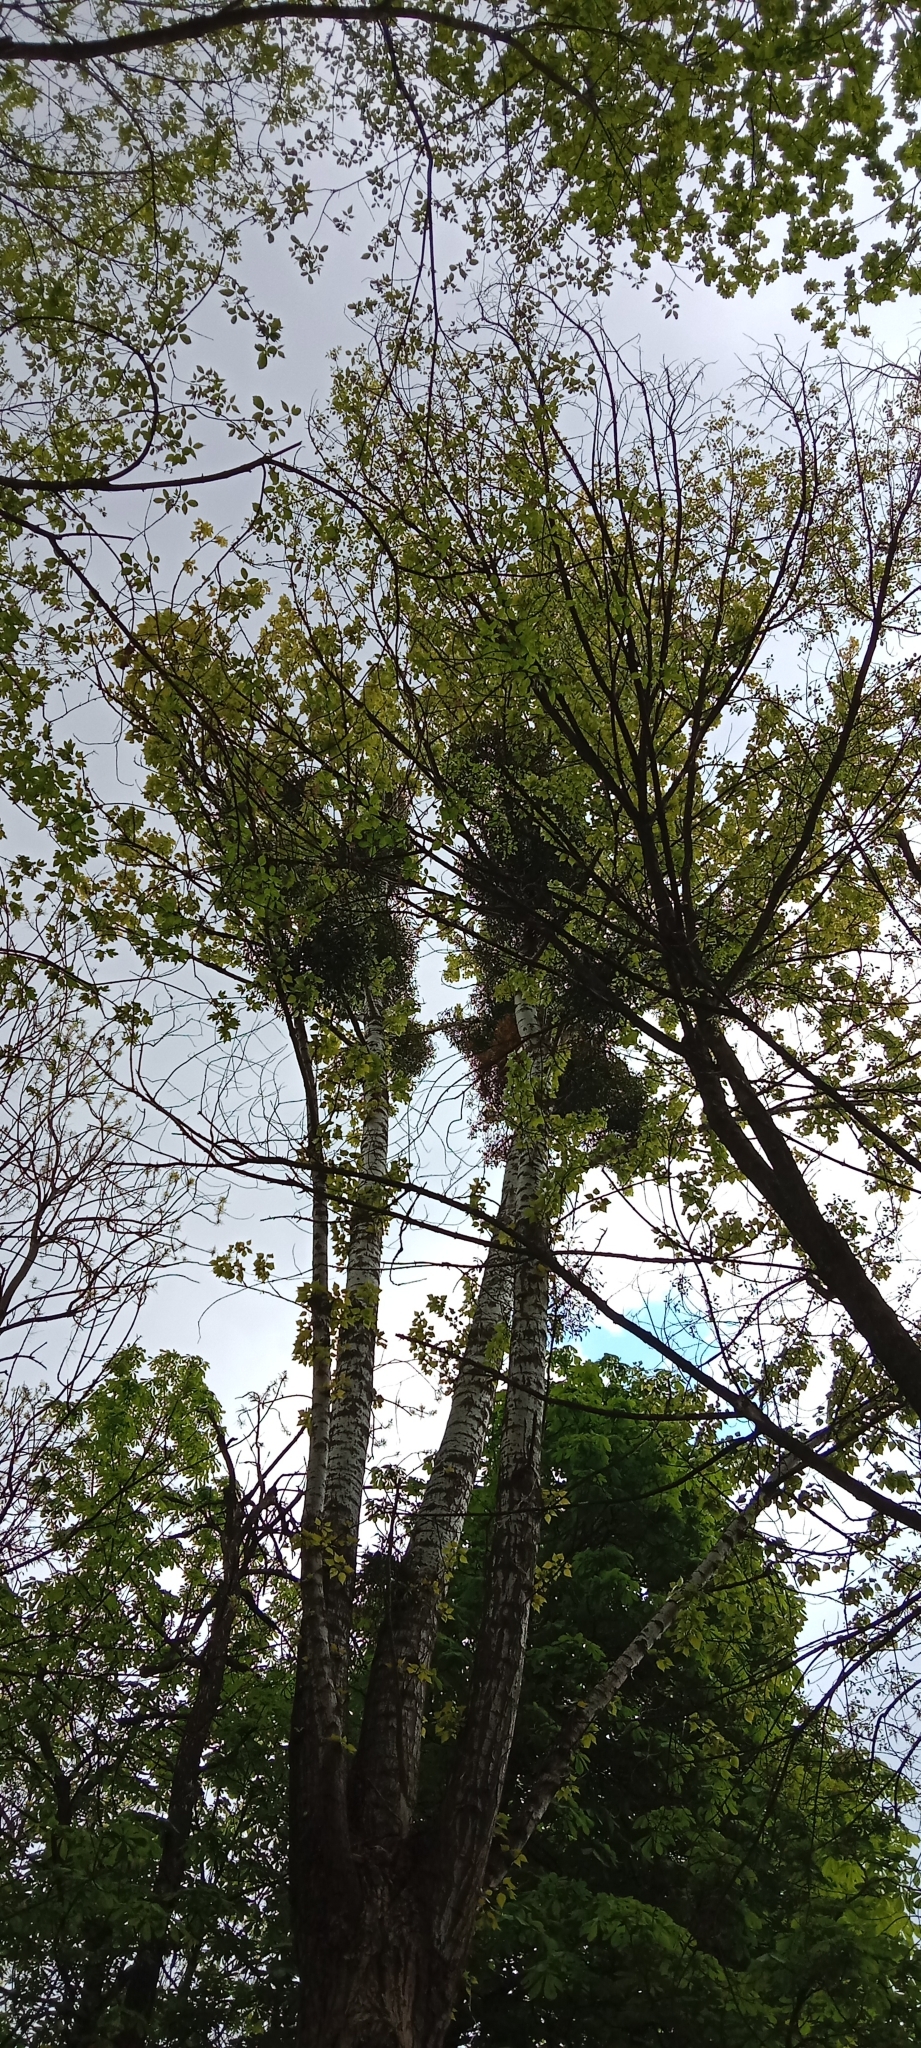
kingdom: Plantae
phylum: Tracheophyta
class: Magnoliopsida
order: Santalales
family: Viscaceae
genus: Viscum
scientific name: Viscum album
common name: Mistletoe
